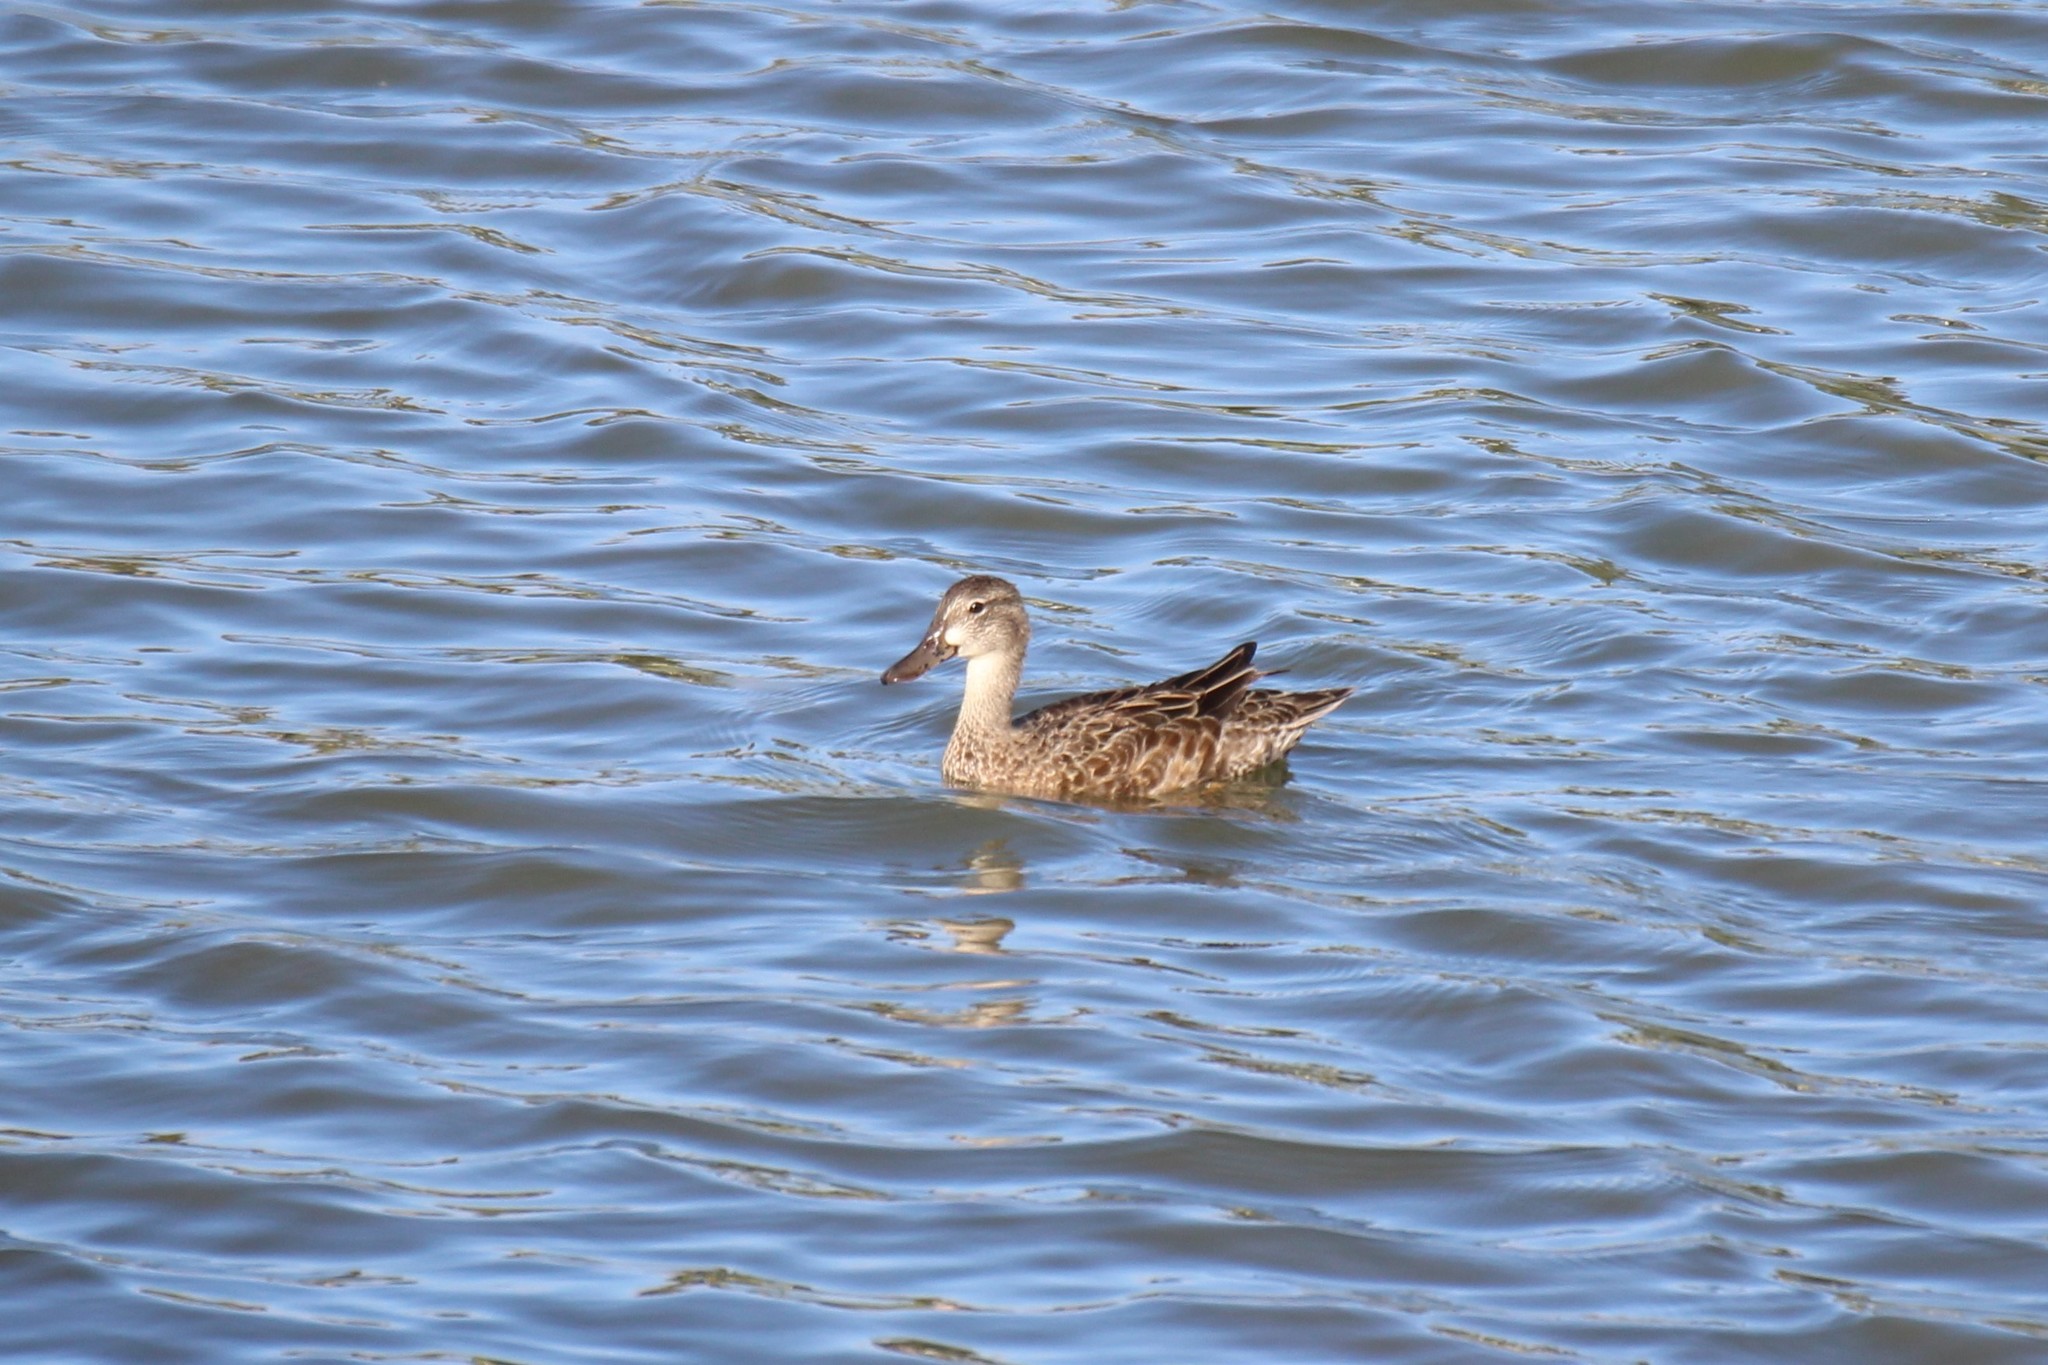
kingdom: Animalia
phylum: Chordata
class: Aves
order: Anseriformes
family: Anatidae
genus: Spatula
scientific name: Spatula discors
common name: Blue-winged teal
